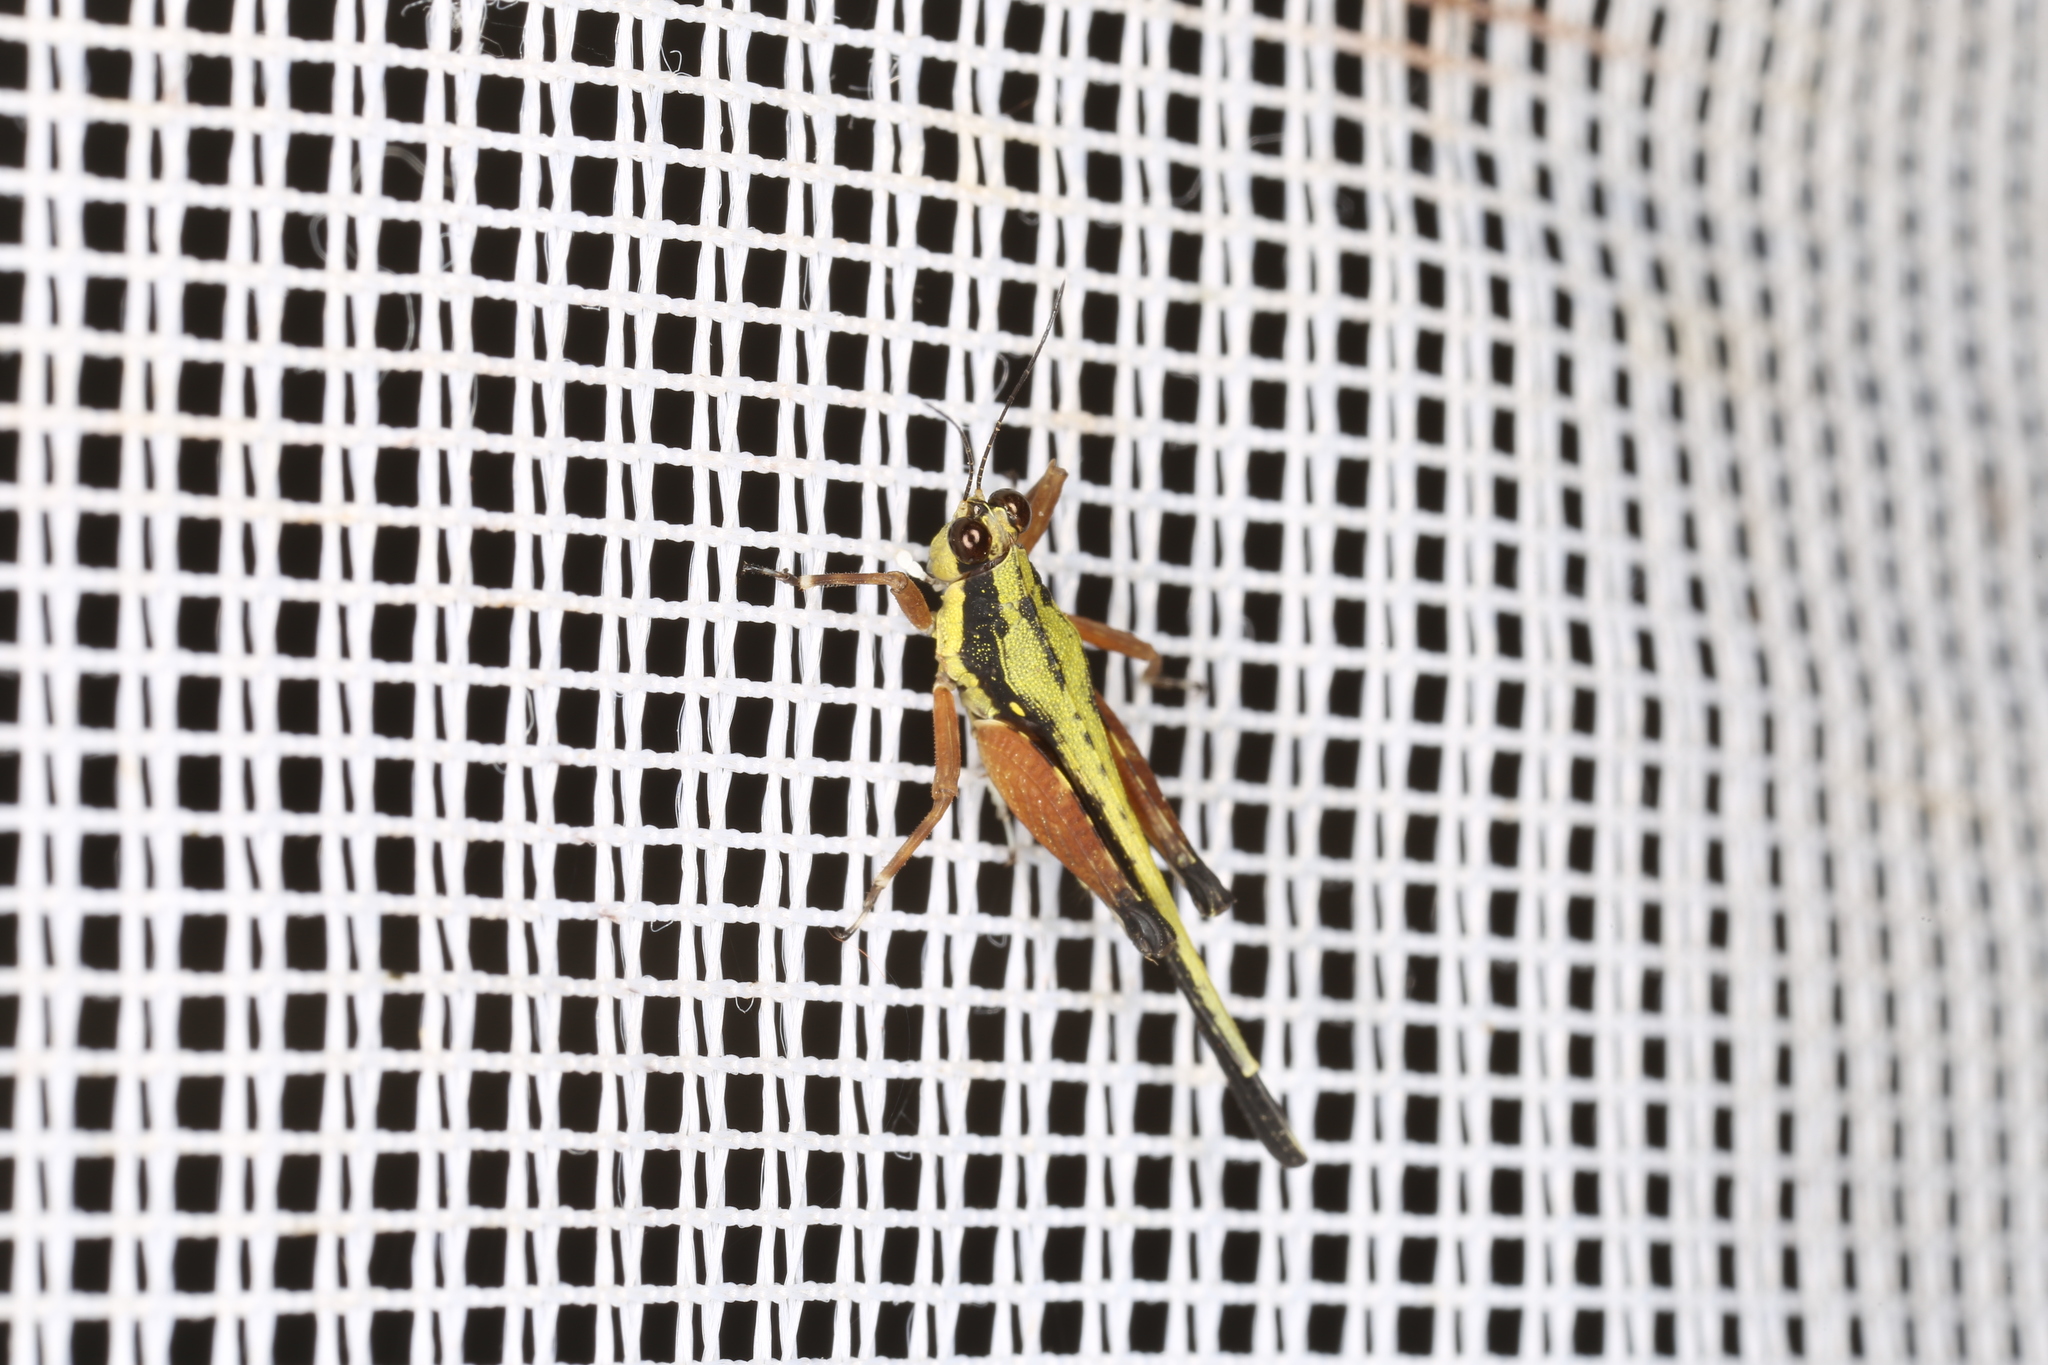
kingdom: Animalia
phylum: Arthropoda
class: Insecta
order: Orthoptera
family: Tetrigidae
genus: Scaria
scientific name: Scaria fasciata
